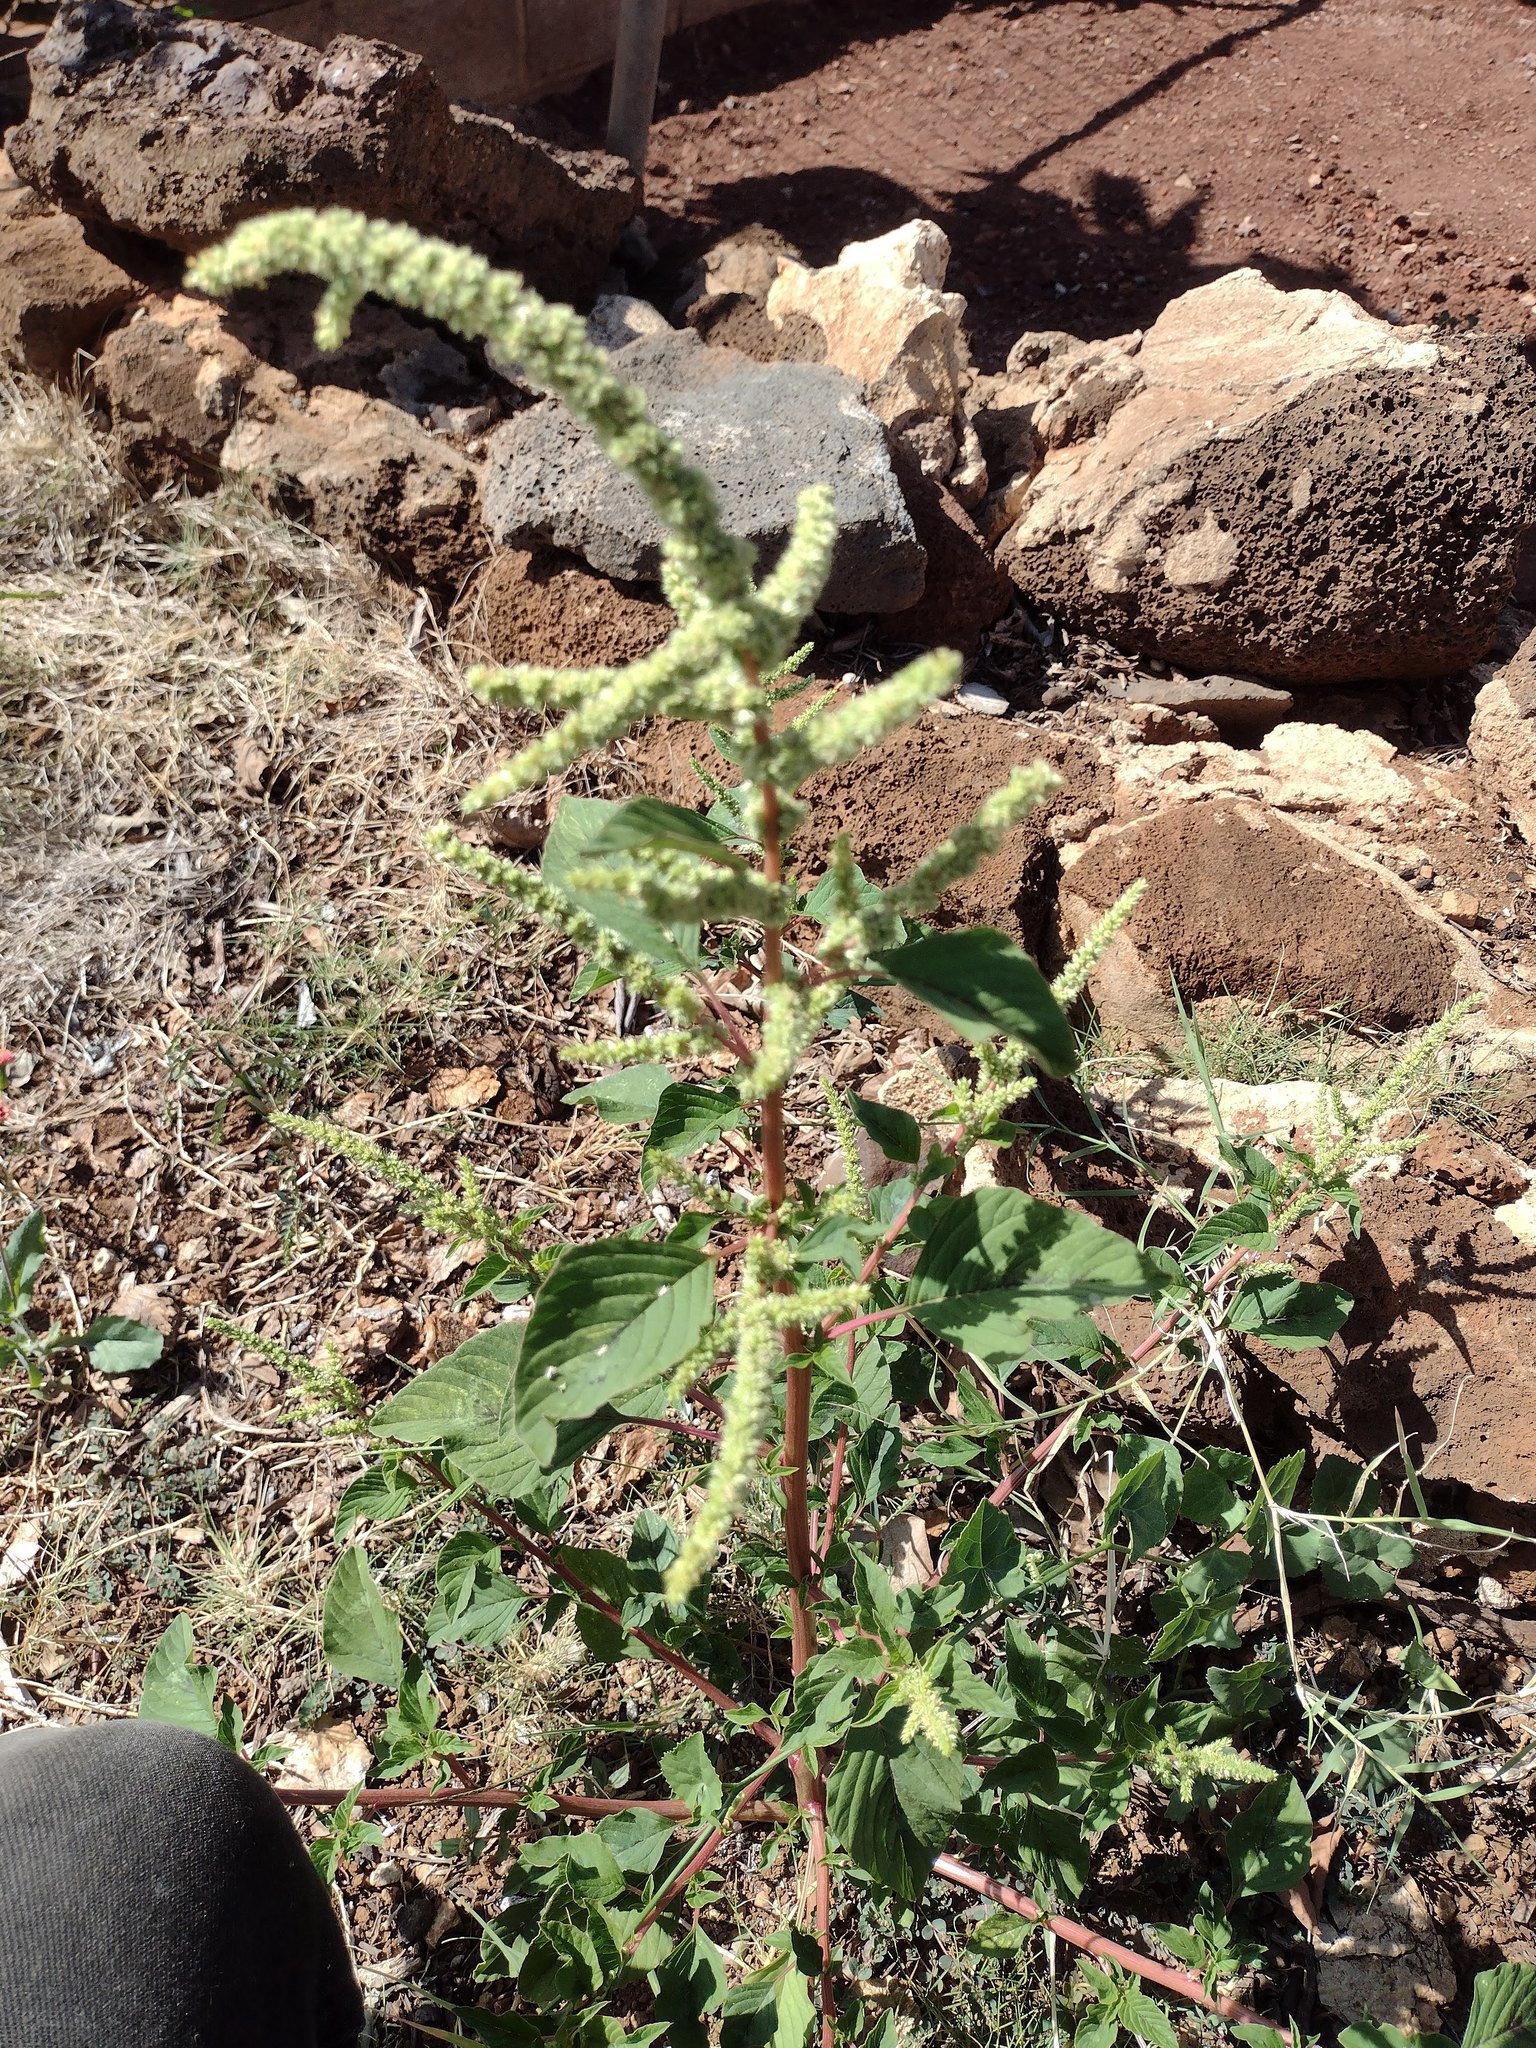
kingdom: Plantae
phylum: Tracheophyta
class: Magnoliopsida
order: Caryophyllales
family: Amaranthaceae
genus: Amaranthus
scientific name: Amaranthus retroflexus
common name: Redroot amaranth
